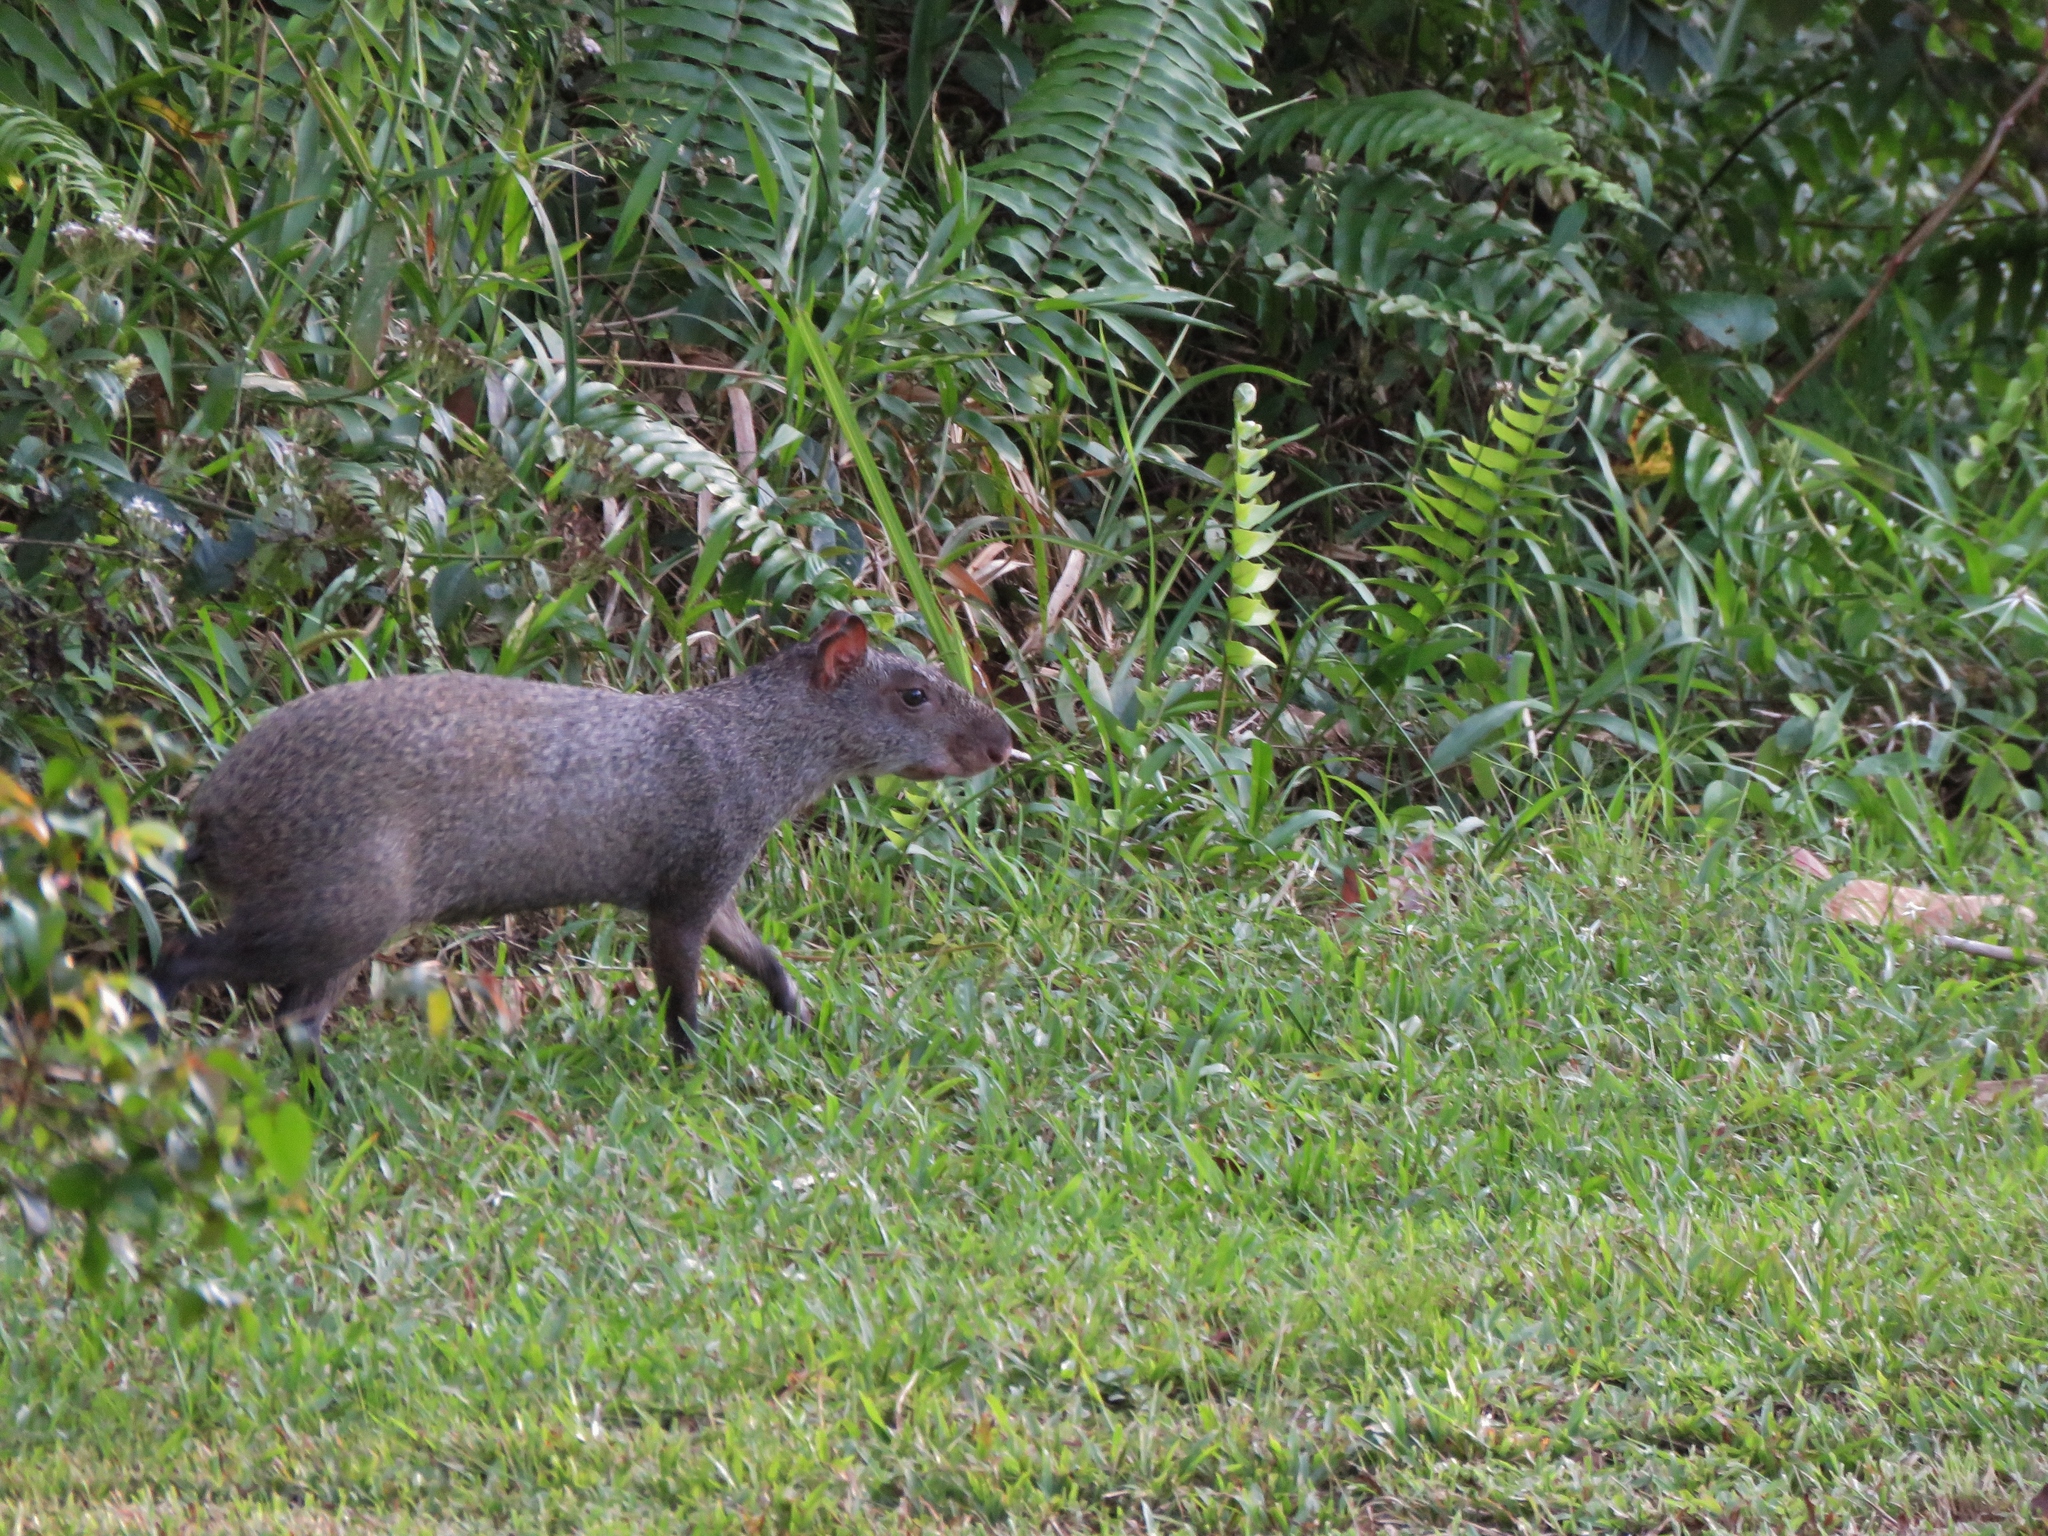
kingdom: Animalia
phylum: Chordata
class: Mammalia
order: Rodentia
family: Dasyproctidae
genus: Dasyprocta
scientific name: Dasyprocta punctata
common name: Central american agouti
